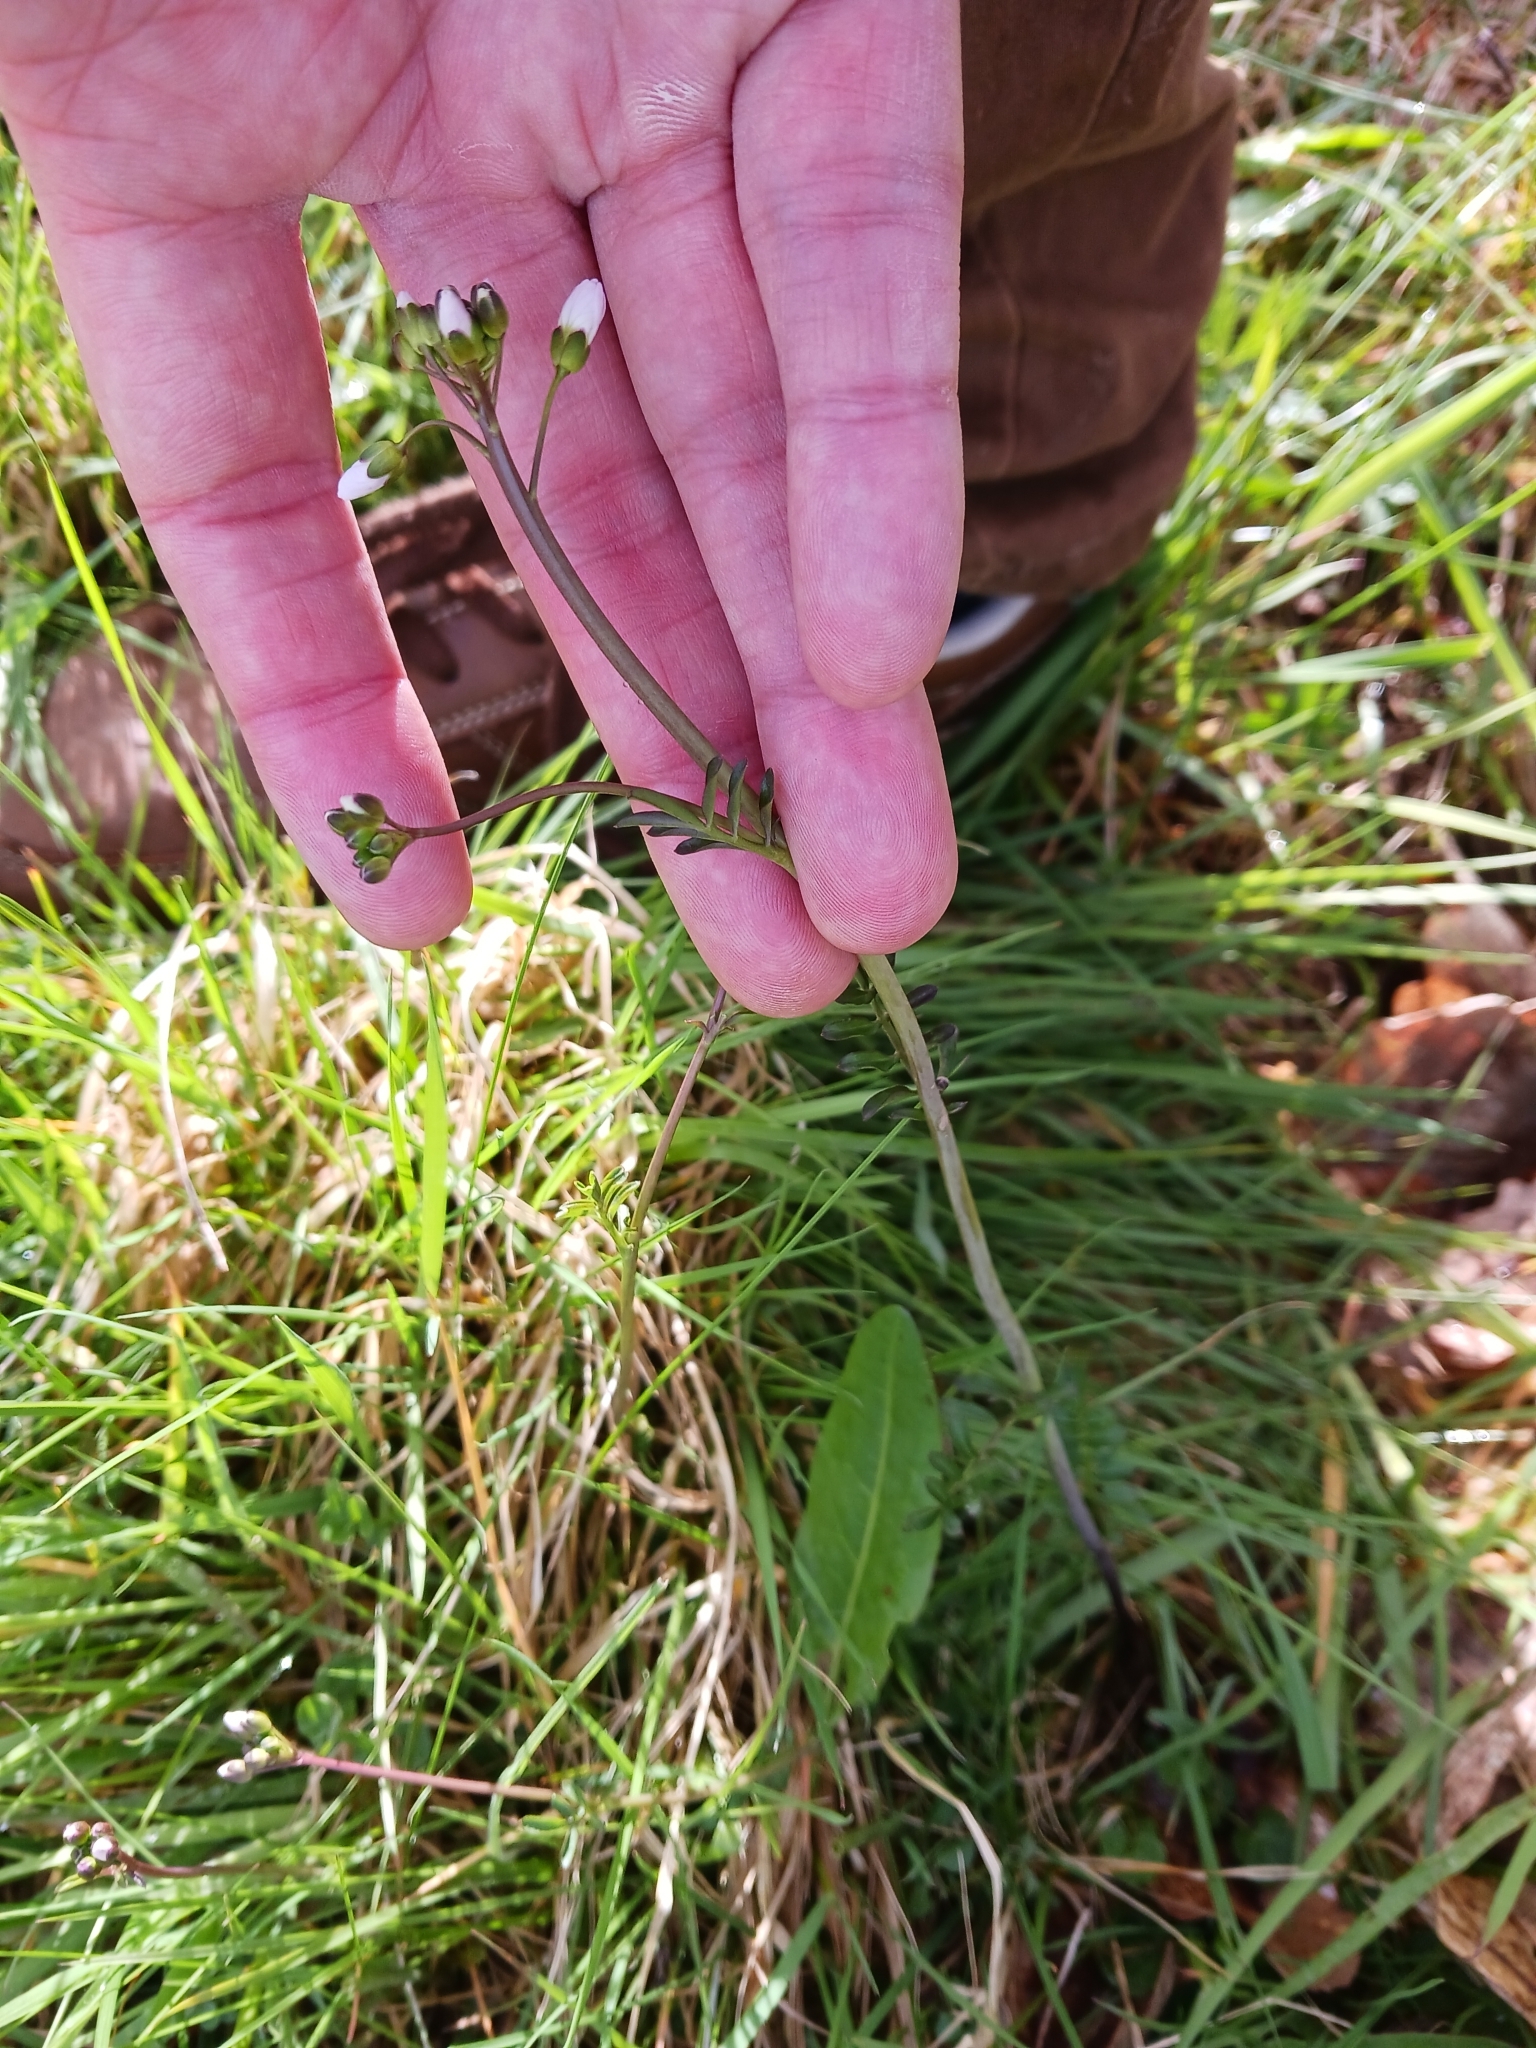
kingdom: Plantae
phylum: Tracheophyta
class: Magnoliopsida
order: Brassicales
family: Brassicaceae
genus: Cardamine
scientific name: Cardamine pratensis
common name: Cuckoo flower
